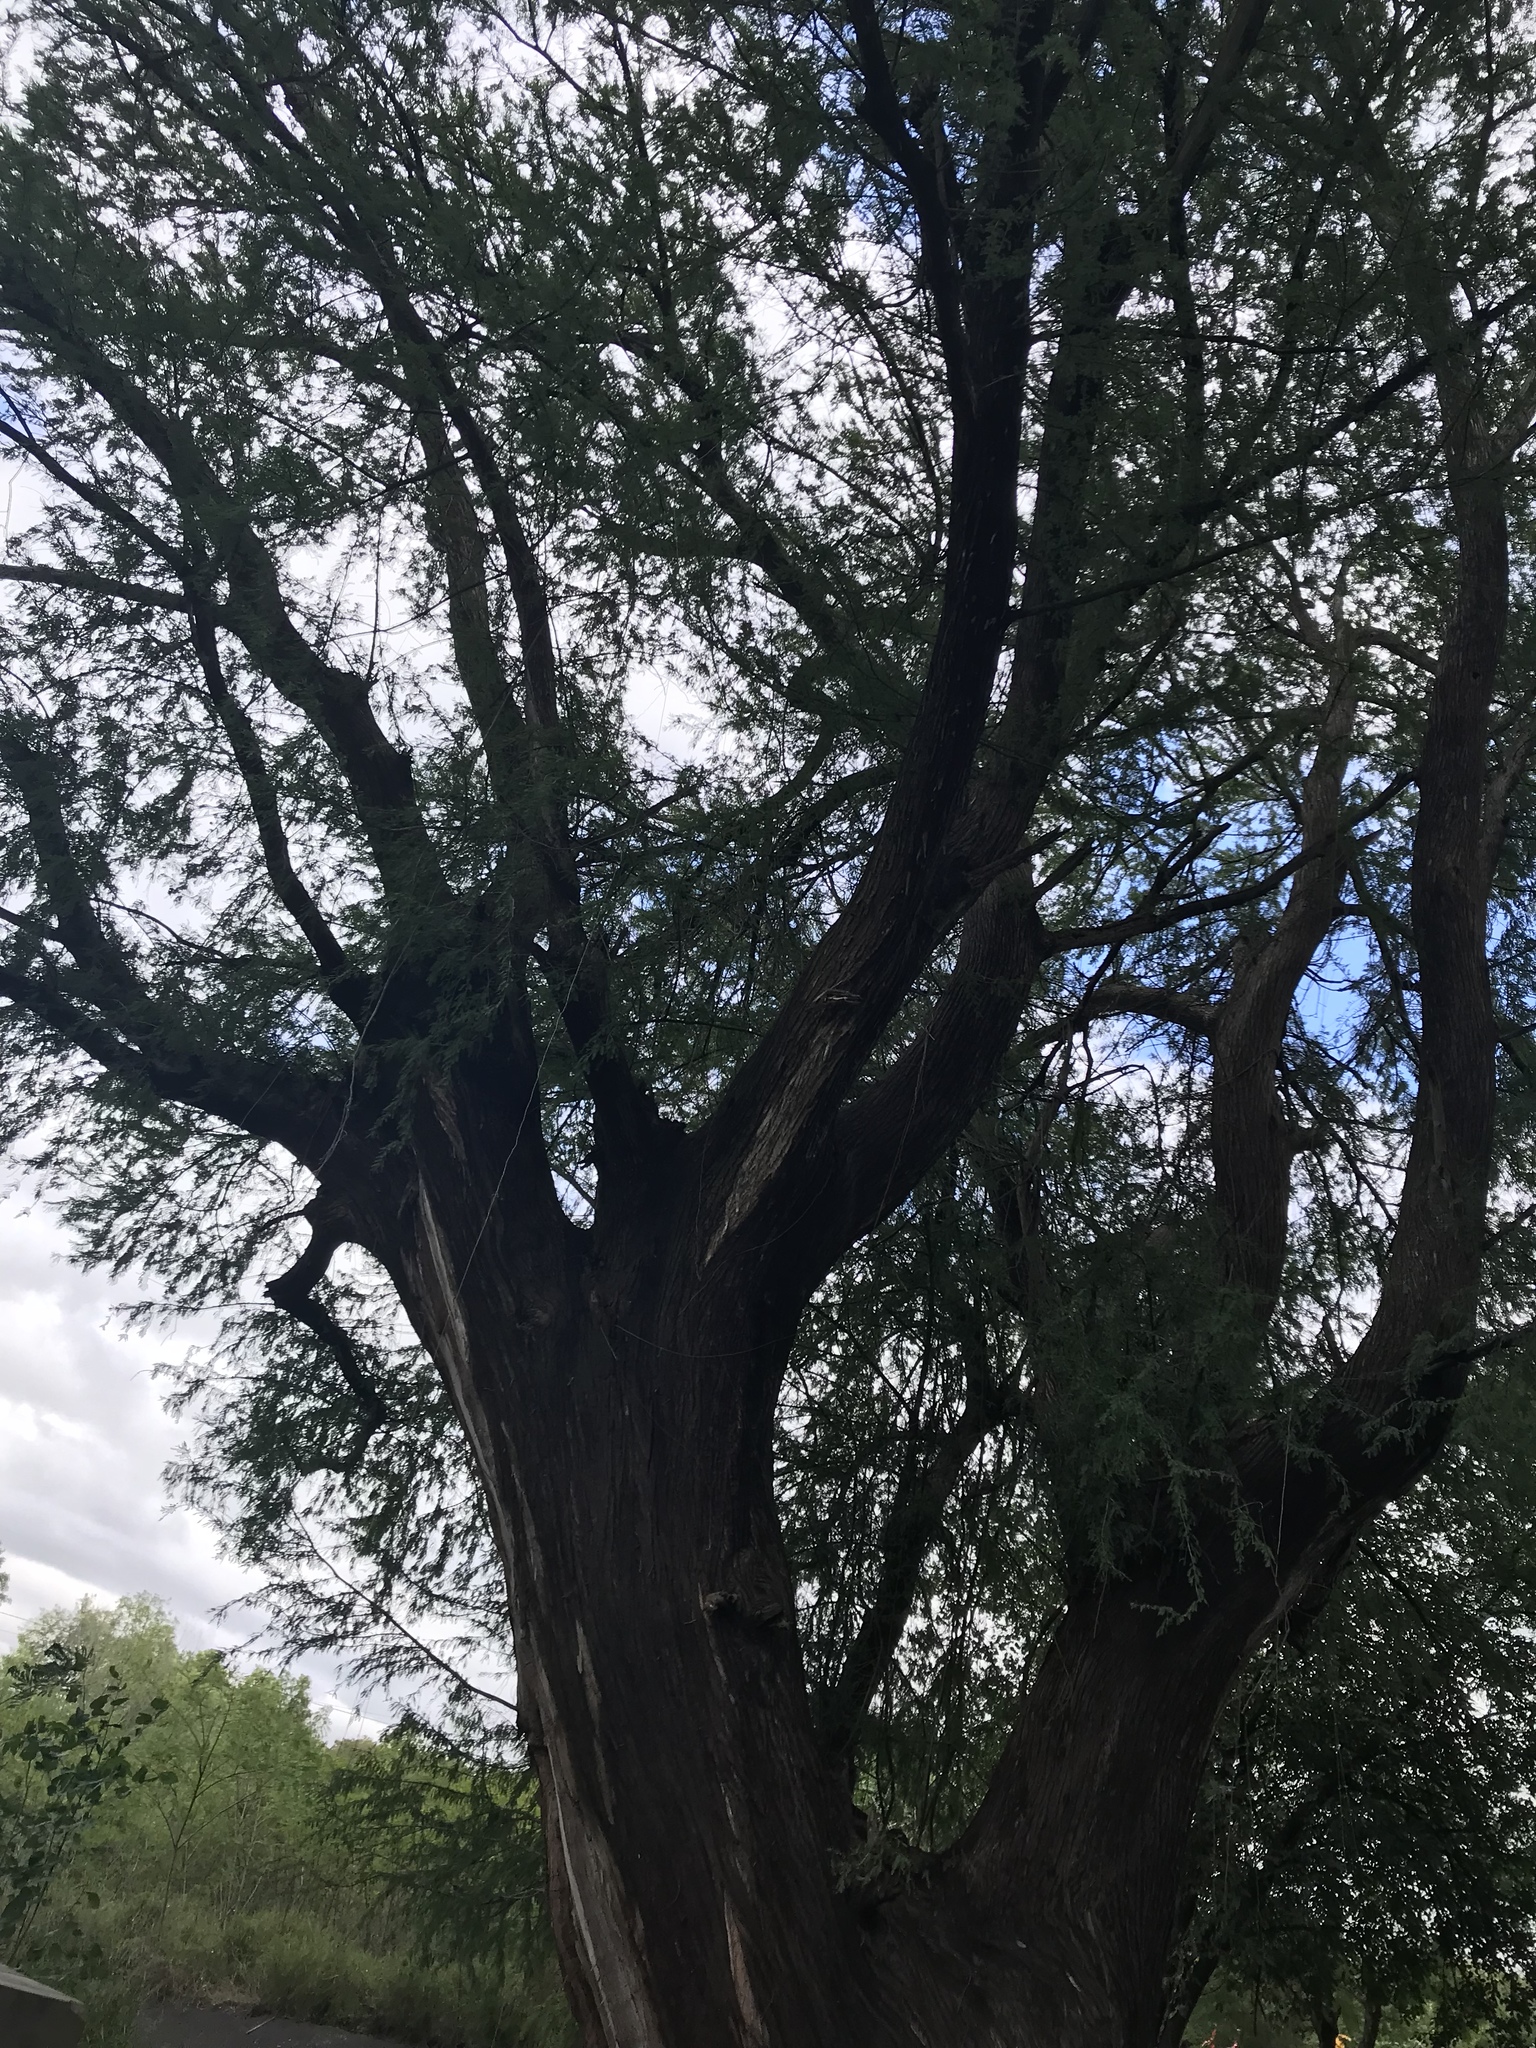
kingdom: Plantae
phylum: Tracheophyta
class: Pinopsida
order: Pinales
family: Cupressaceae
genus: Taxodium
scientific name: Taxodium mucronatum
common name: Montezume bald cypress
